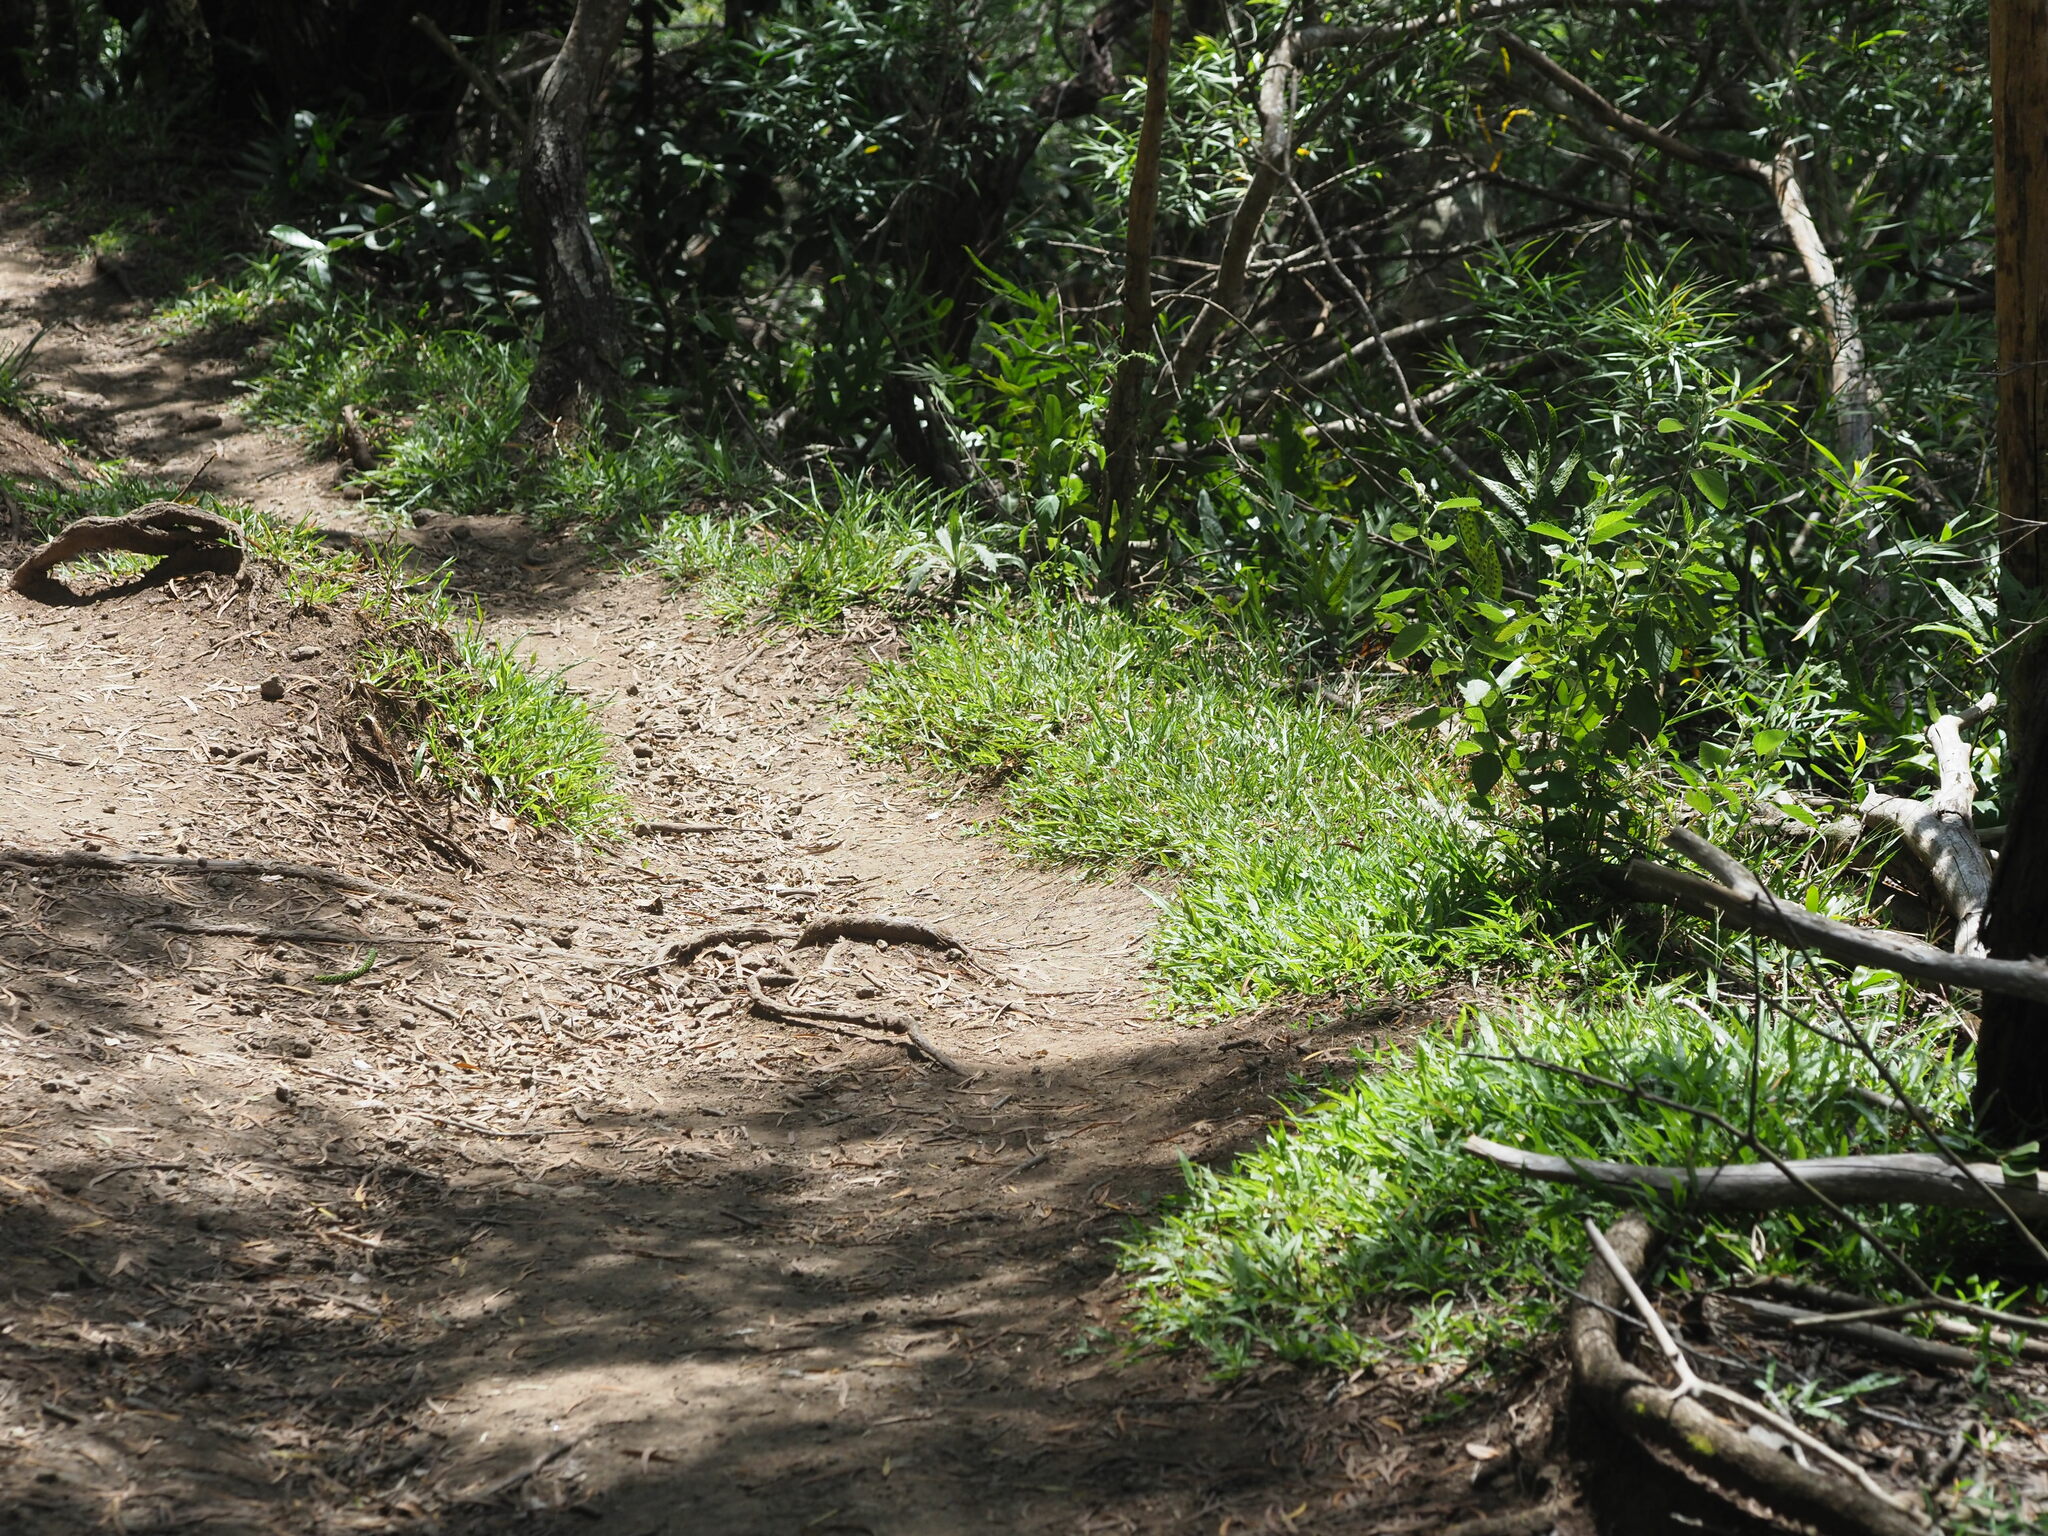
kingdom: Plantae
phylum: Tracheophyta
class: Liliopsida
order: Poales
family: Poaceae
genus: Axonopus
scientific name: Axonopus compressus
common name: American carpet grass
